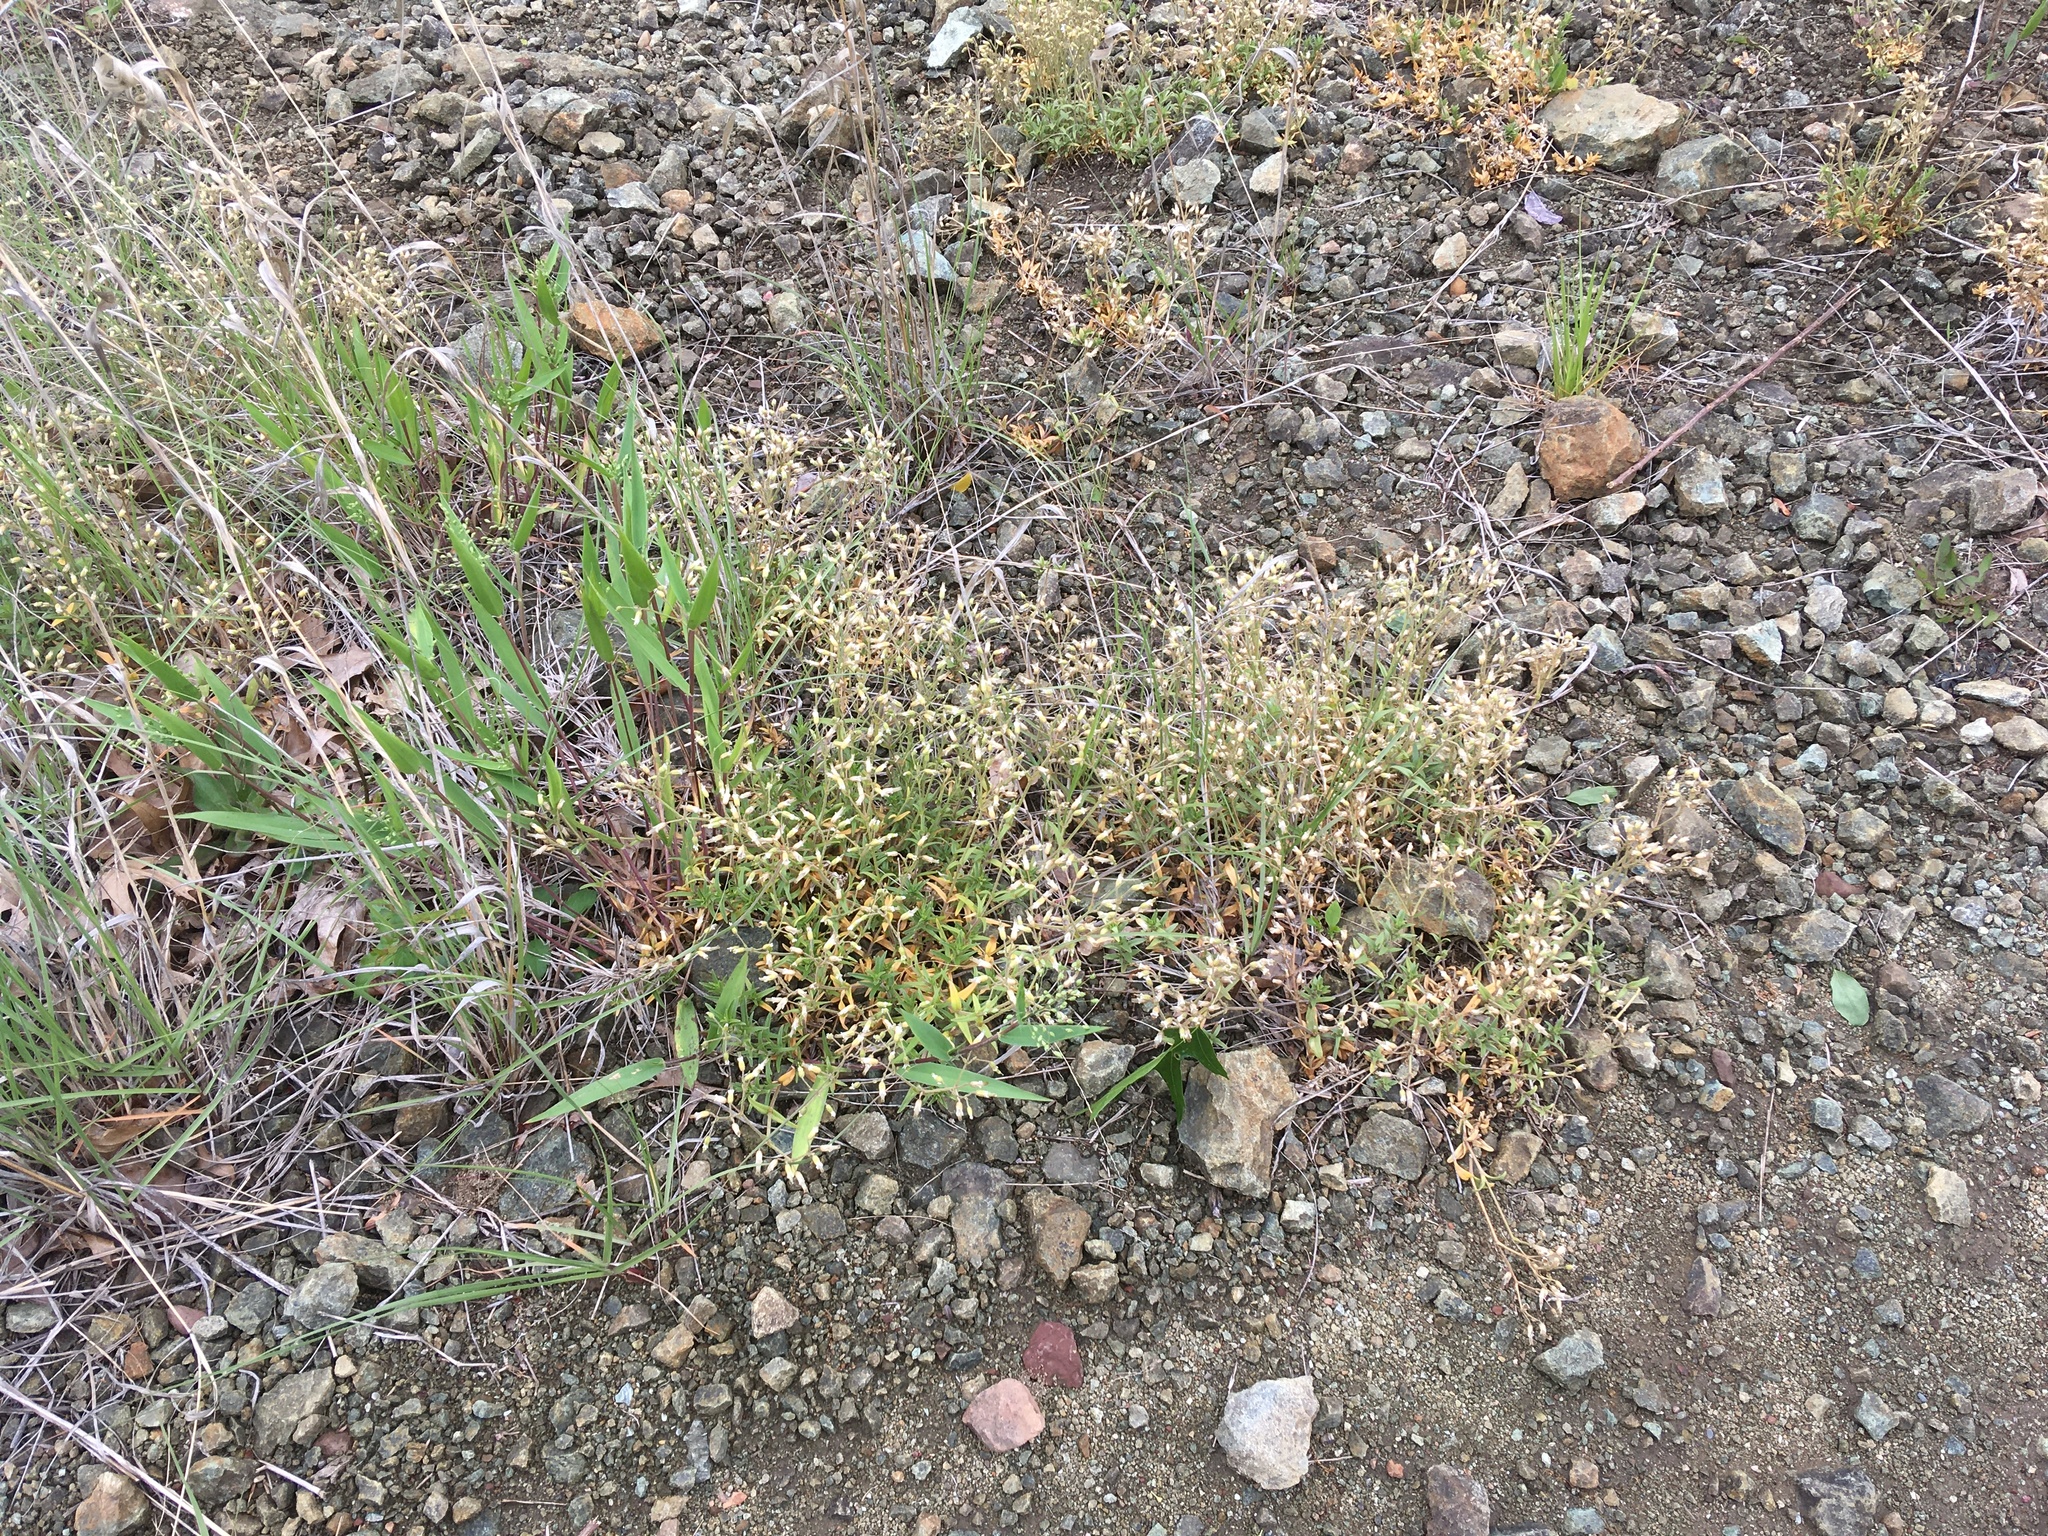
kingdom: Plantae
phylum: Tracheophyta
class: Magnoliopsida
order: Caryophyllales
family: Caryophyllaceae
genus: Cerastium
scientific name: Cerastium arvense
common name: Field mouse-ear
